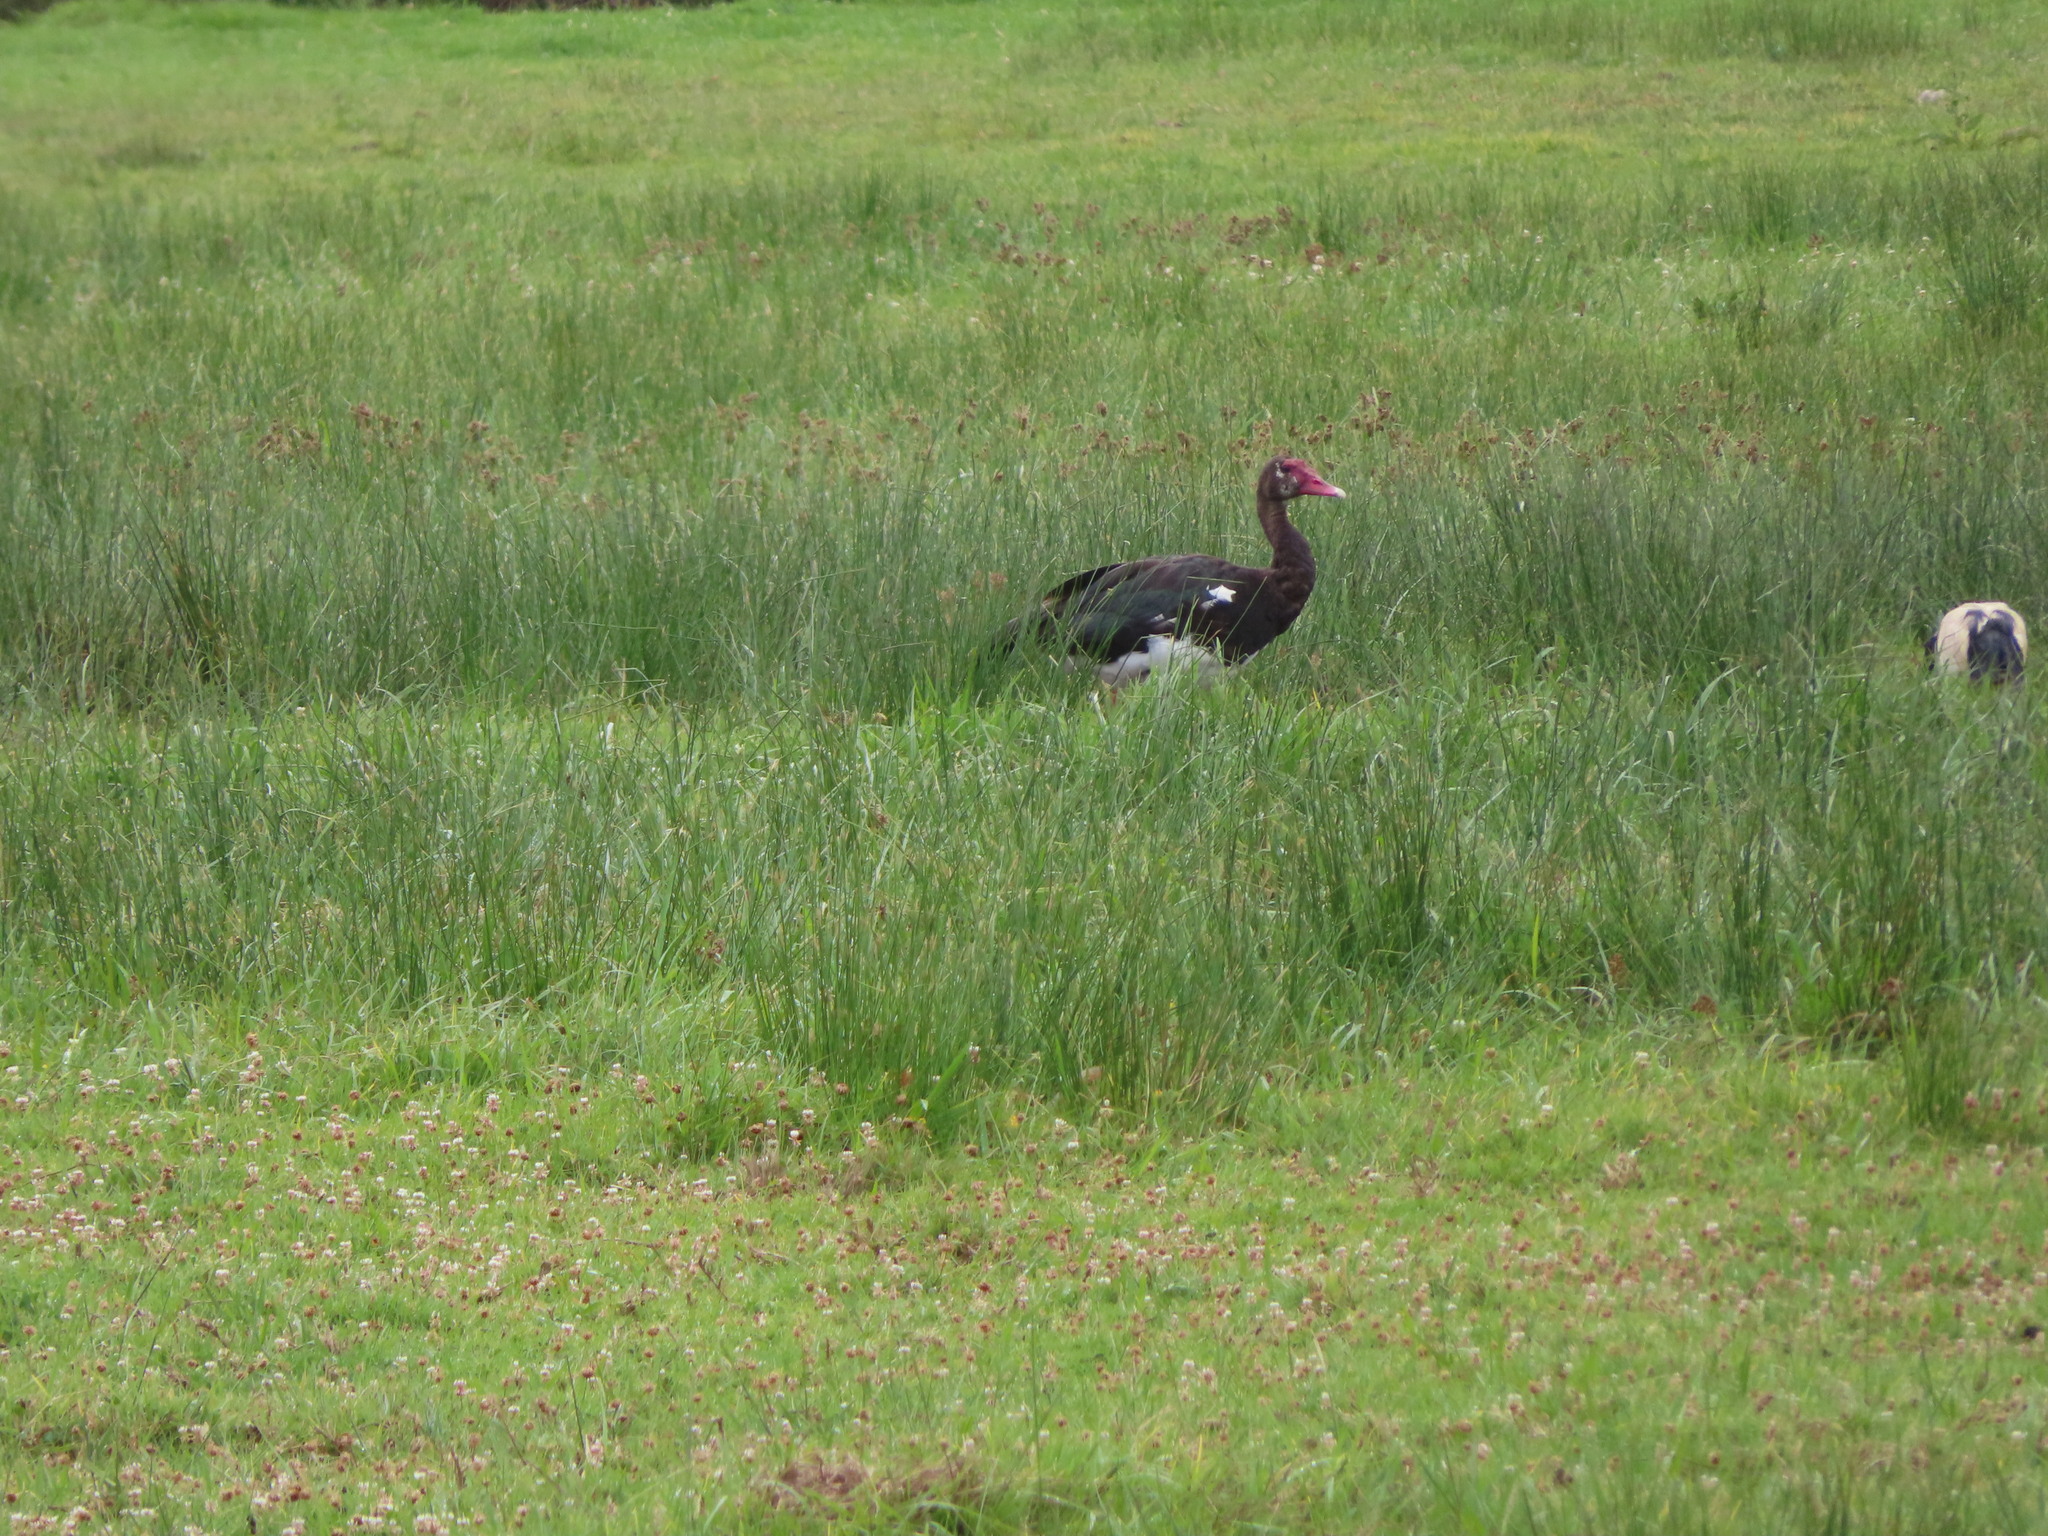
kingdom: Animalia
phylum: Chordata
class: Aves
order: Anseriformes
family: Anatidae
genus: Plectropterus
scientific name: Plectropterus gambensis
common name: Spur-winged goose
